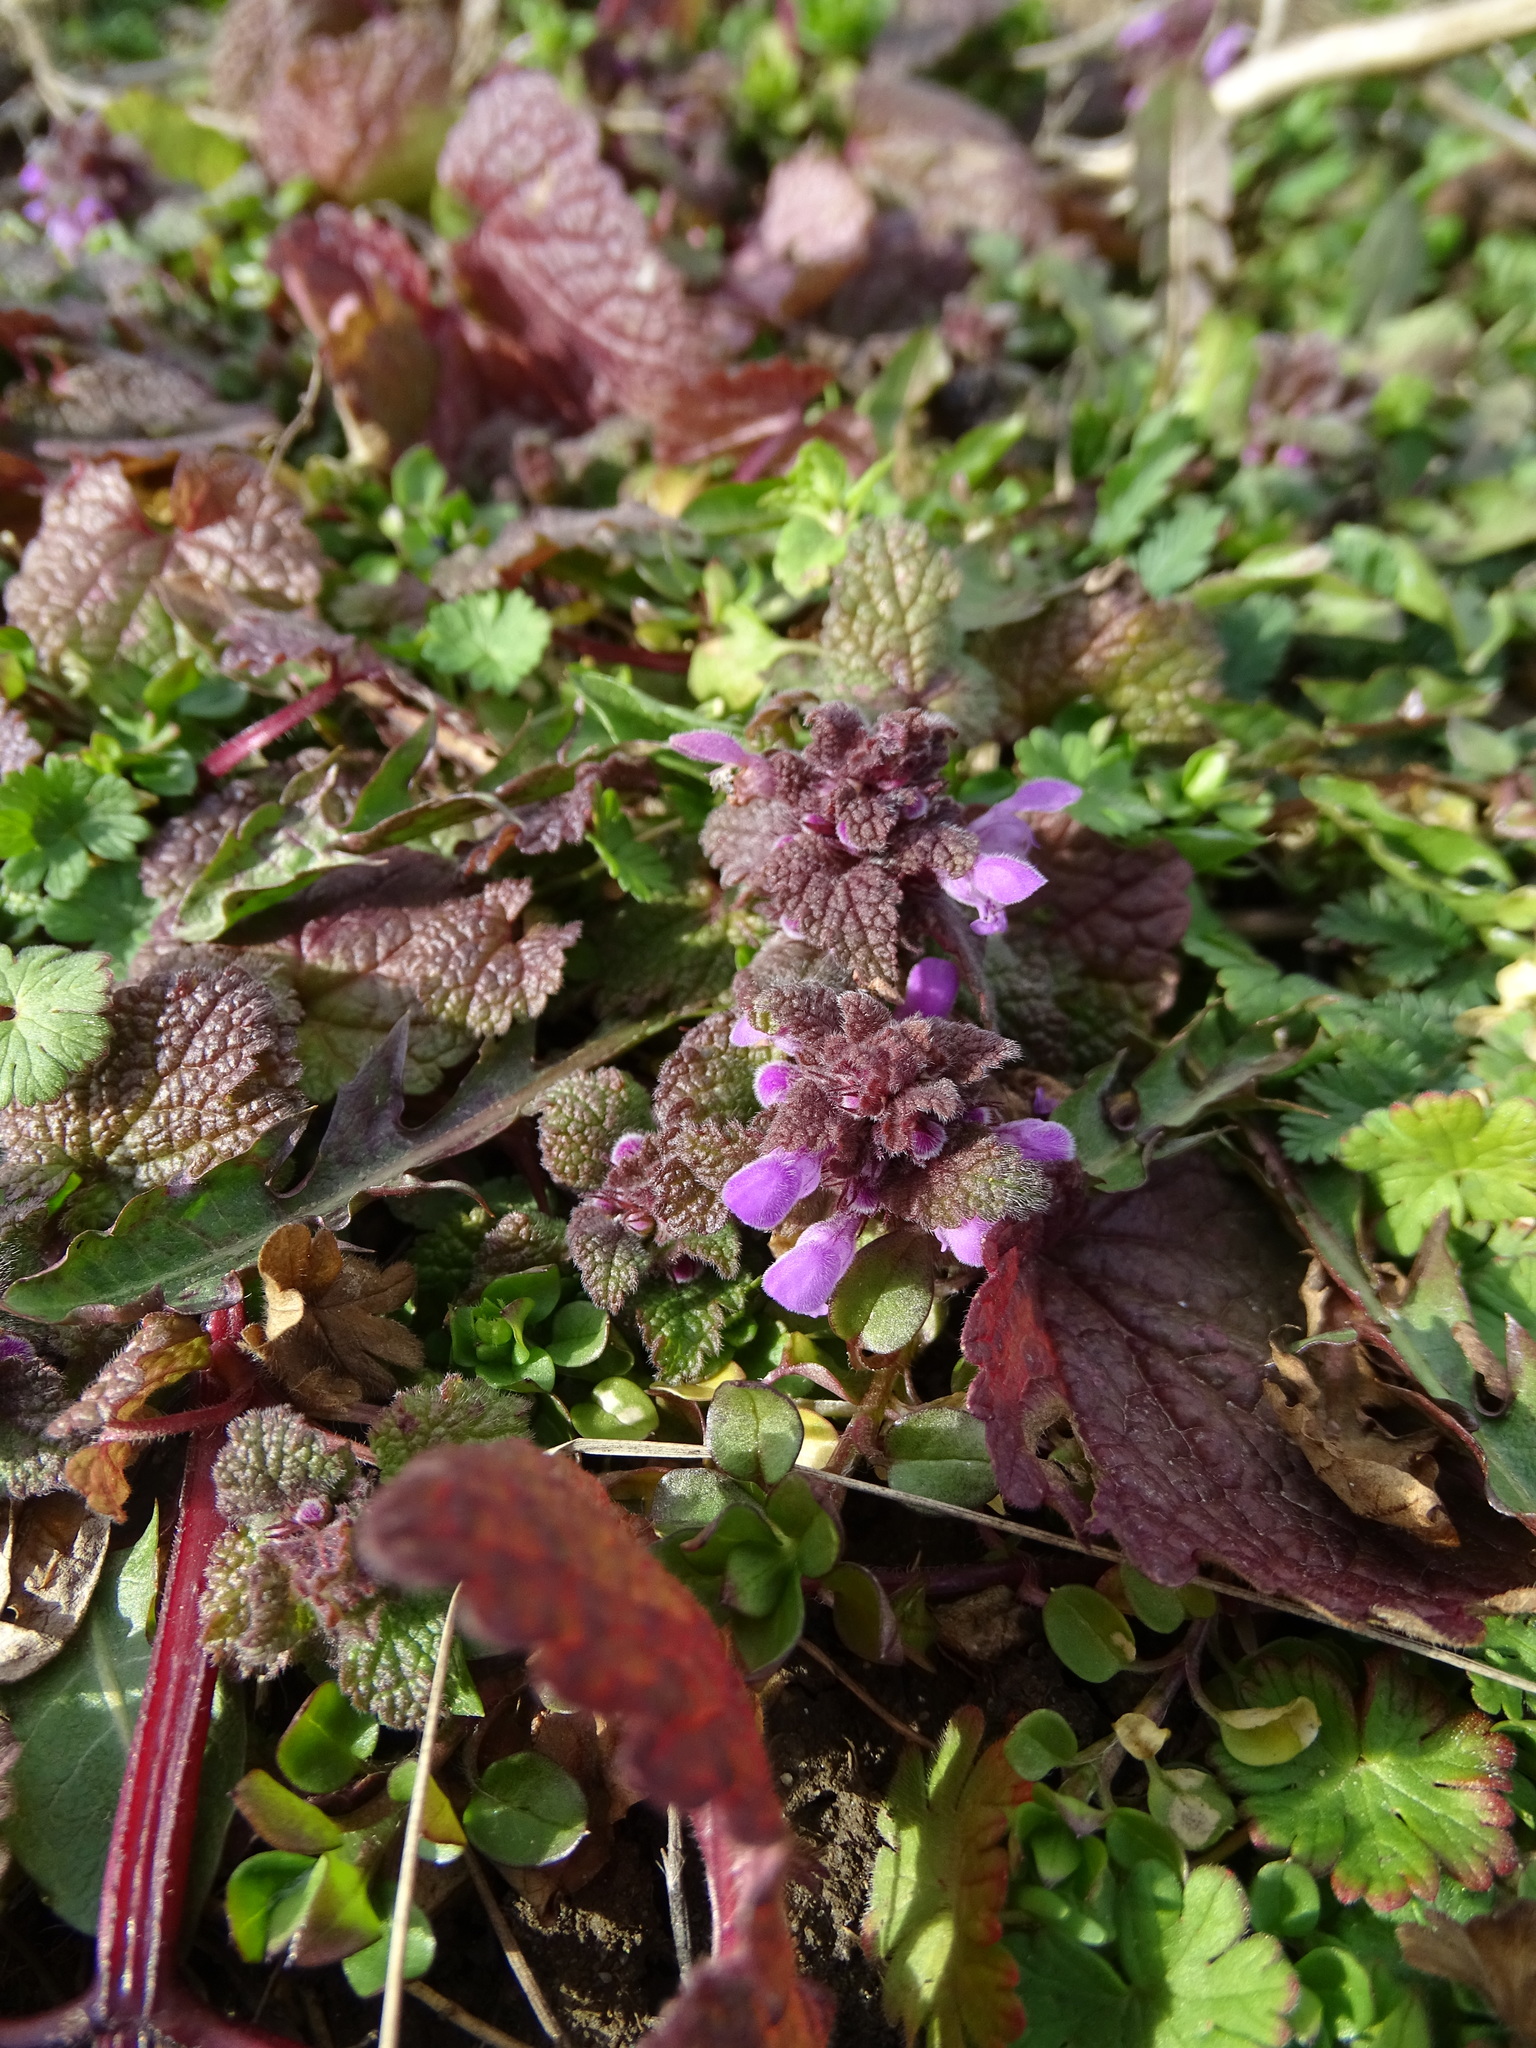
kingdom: Plantae
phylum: Tracheophyta
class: Magnoliopsida
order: Lamiales
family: Lamiaceae
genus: Lamium
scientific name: Lamium purpureum
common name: Red dead-nettle
